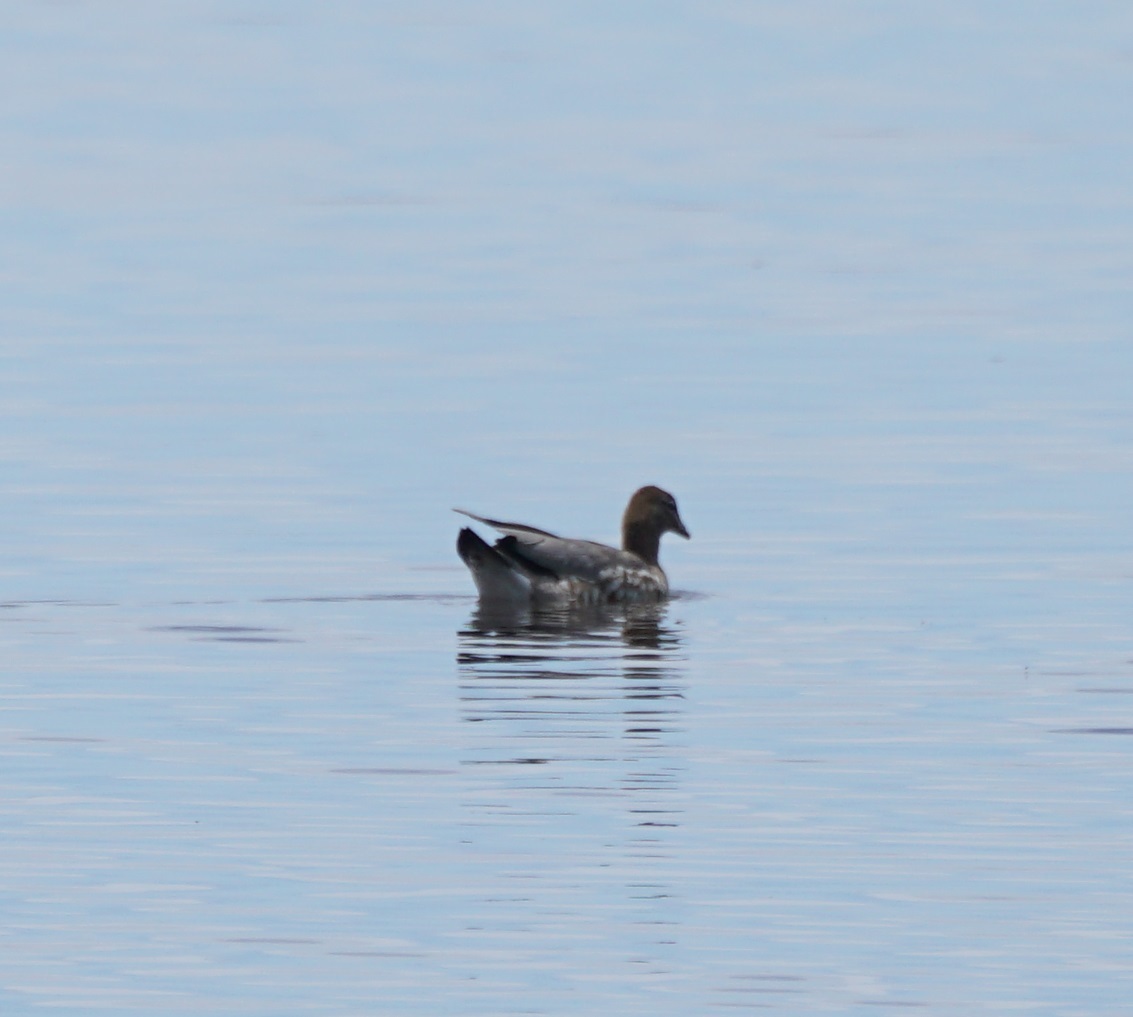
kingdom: Animalia
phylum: Chordata
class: Aves
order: Anseriformes
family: Anatidae
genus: Chenonetta
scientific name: Chenonetta jubata
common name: Maned duck
